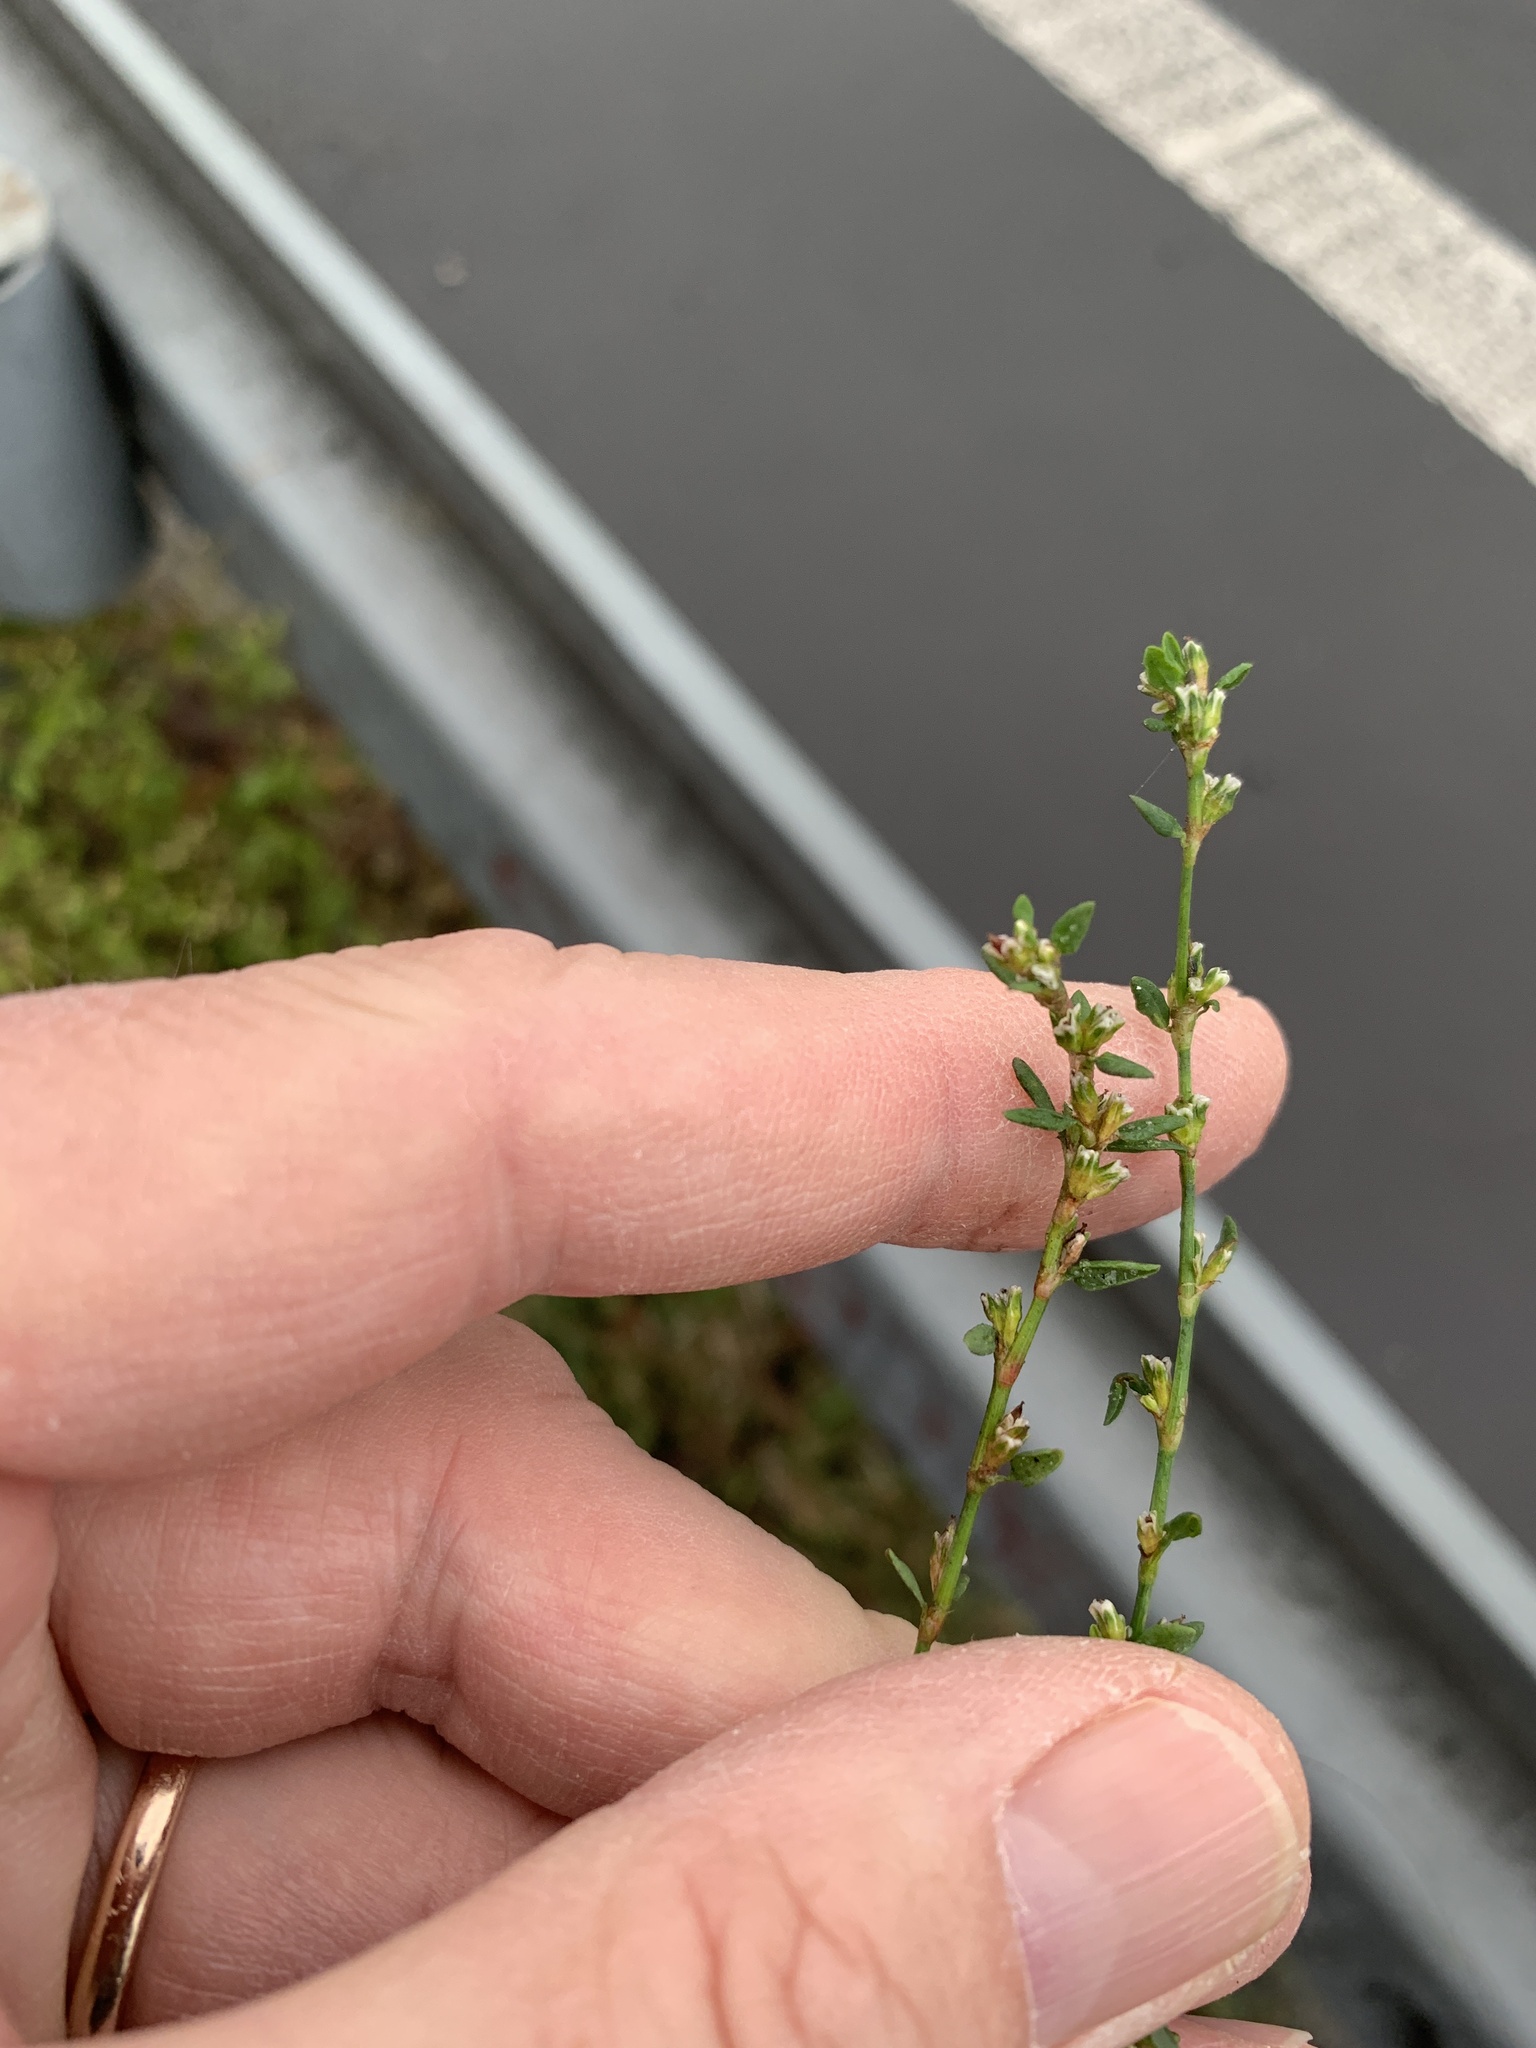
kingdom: Plantae
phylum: Tracheophyta
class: Magnoliopsida
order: Caryophyllales
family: Polygonaceae
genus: Polygonum
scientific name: Polygonum
